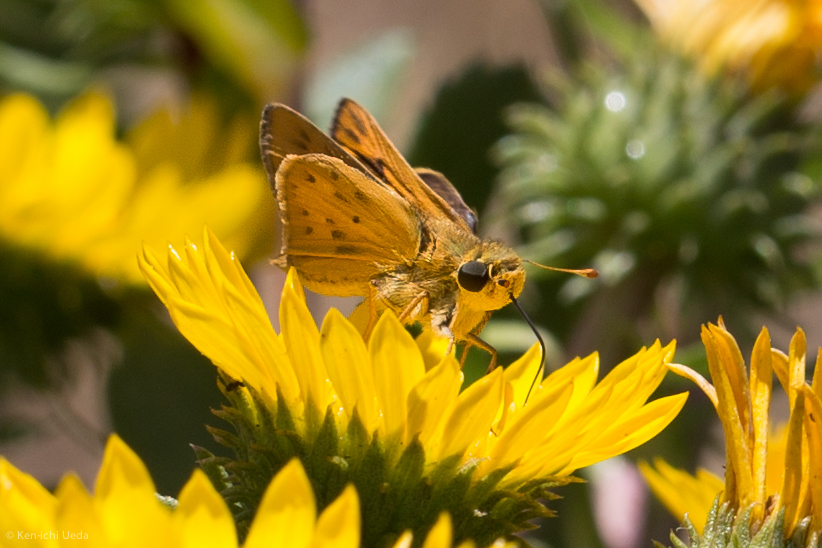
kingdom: Animalia
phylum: Arthropoda
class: Insecta
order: Lepidoptera
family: Hesperiidae
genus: Hylephila
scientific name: Hylephila phyleus
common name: Fiery skipper
